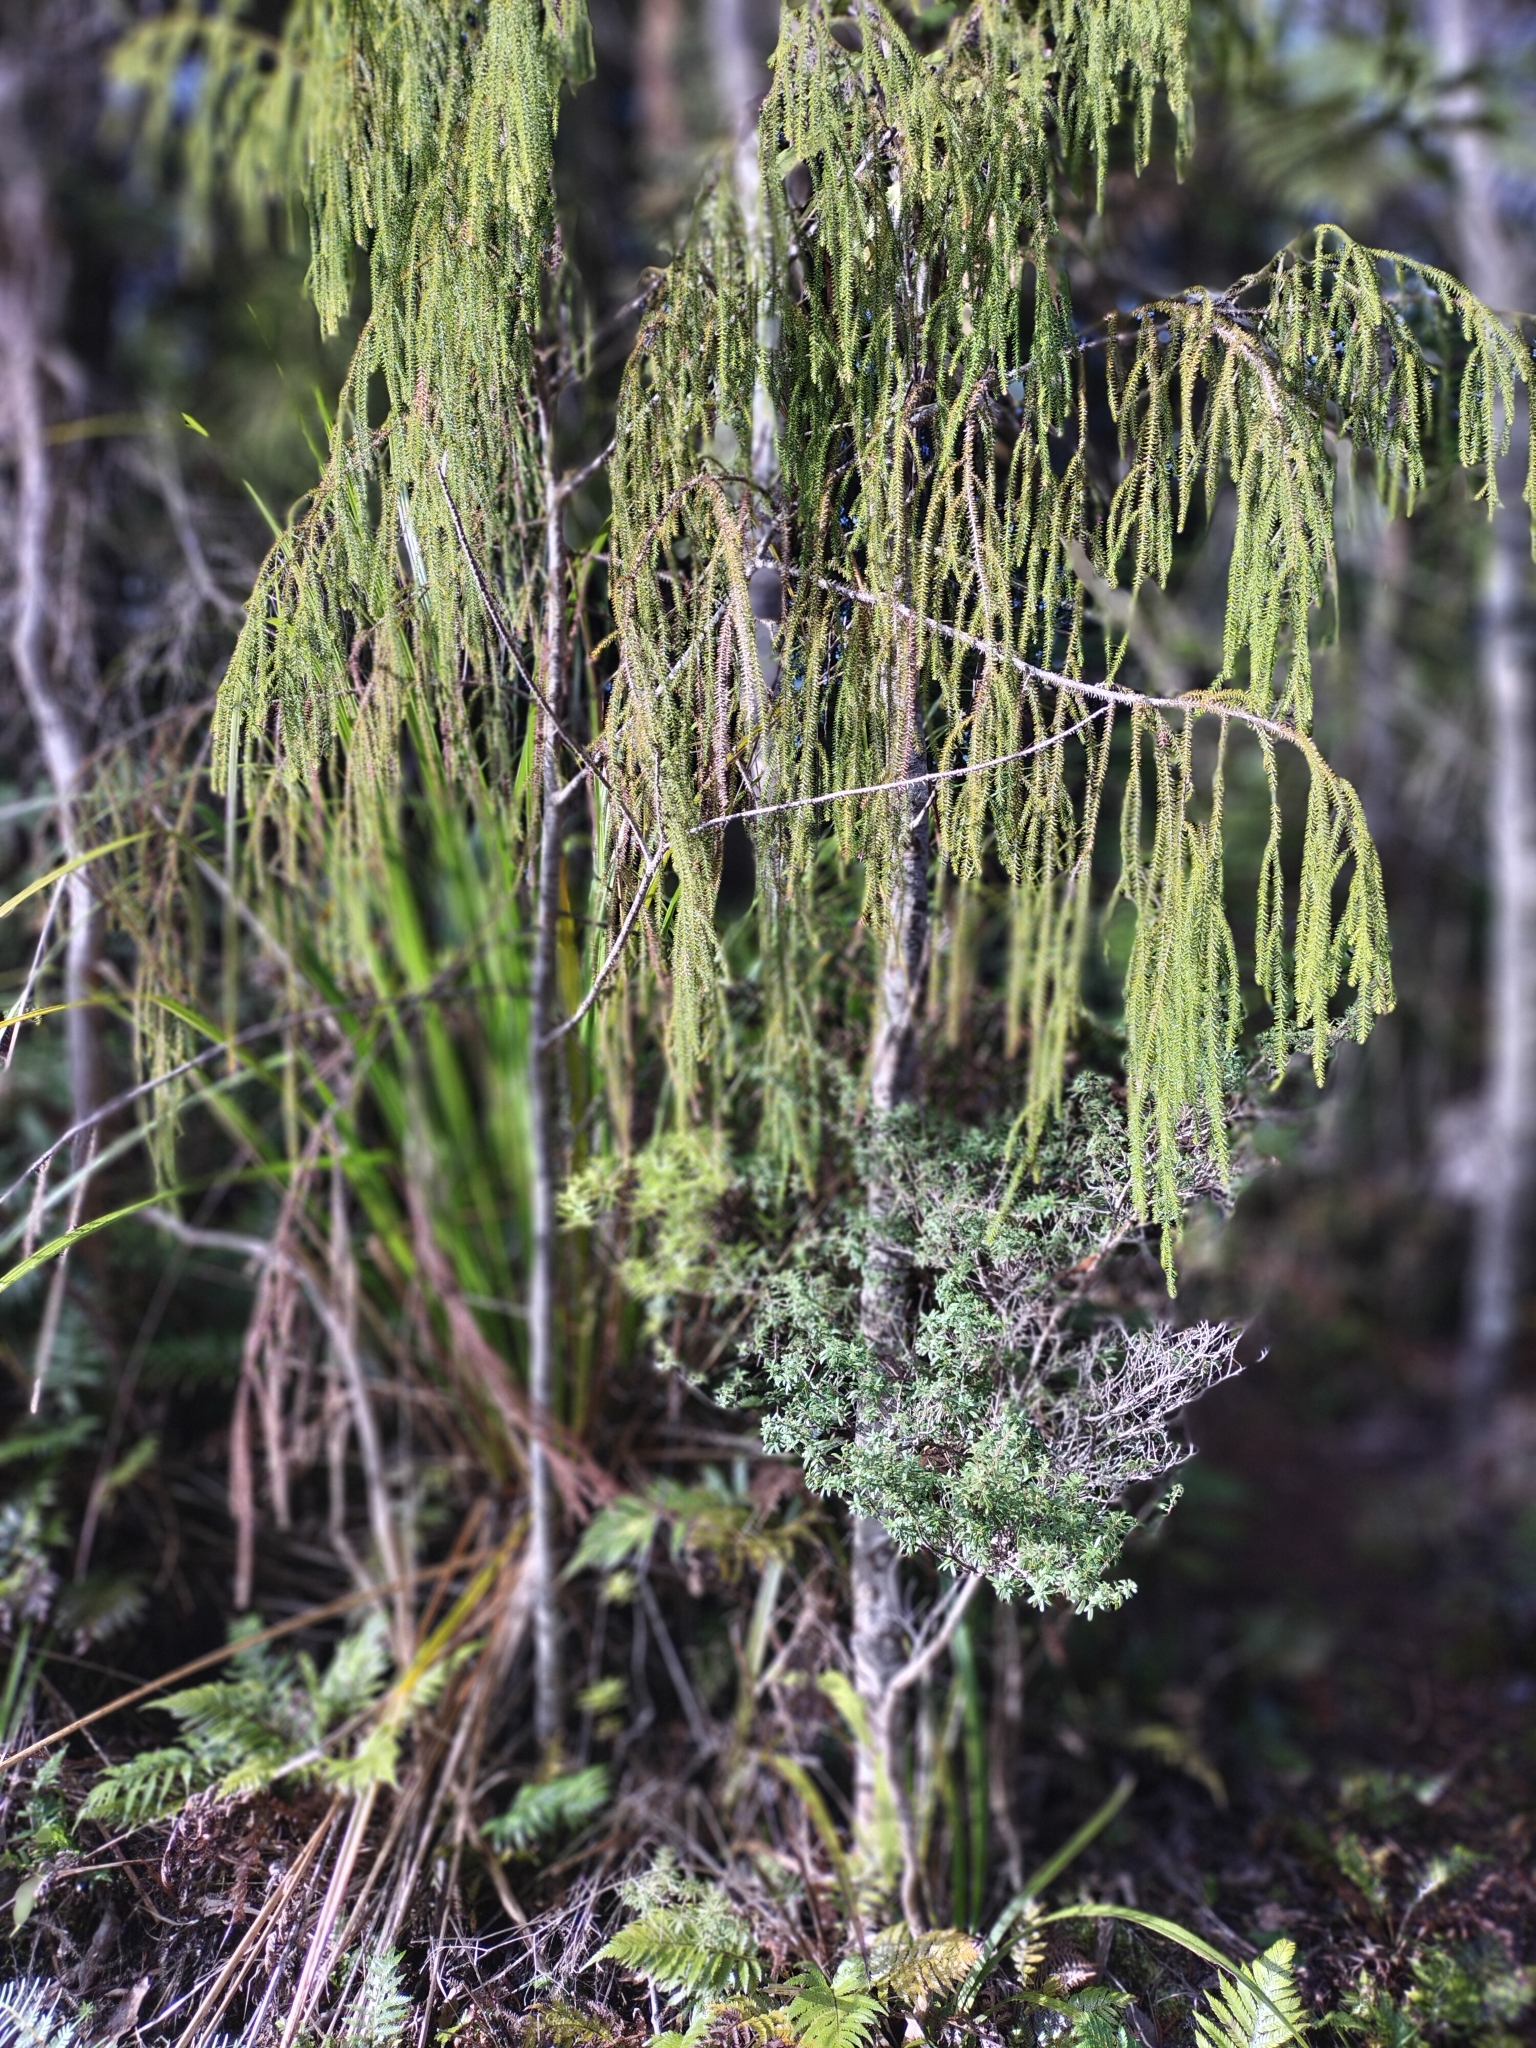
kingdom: Plantae
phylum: Tracheophyta
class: Pinopsida
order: Pinales
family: Podocarpaceae
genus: Dacrydium
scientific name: Dacrydium cupressinum
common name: Red pine
